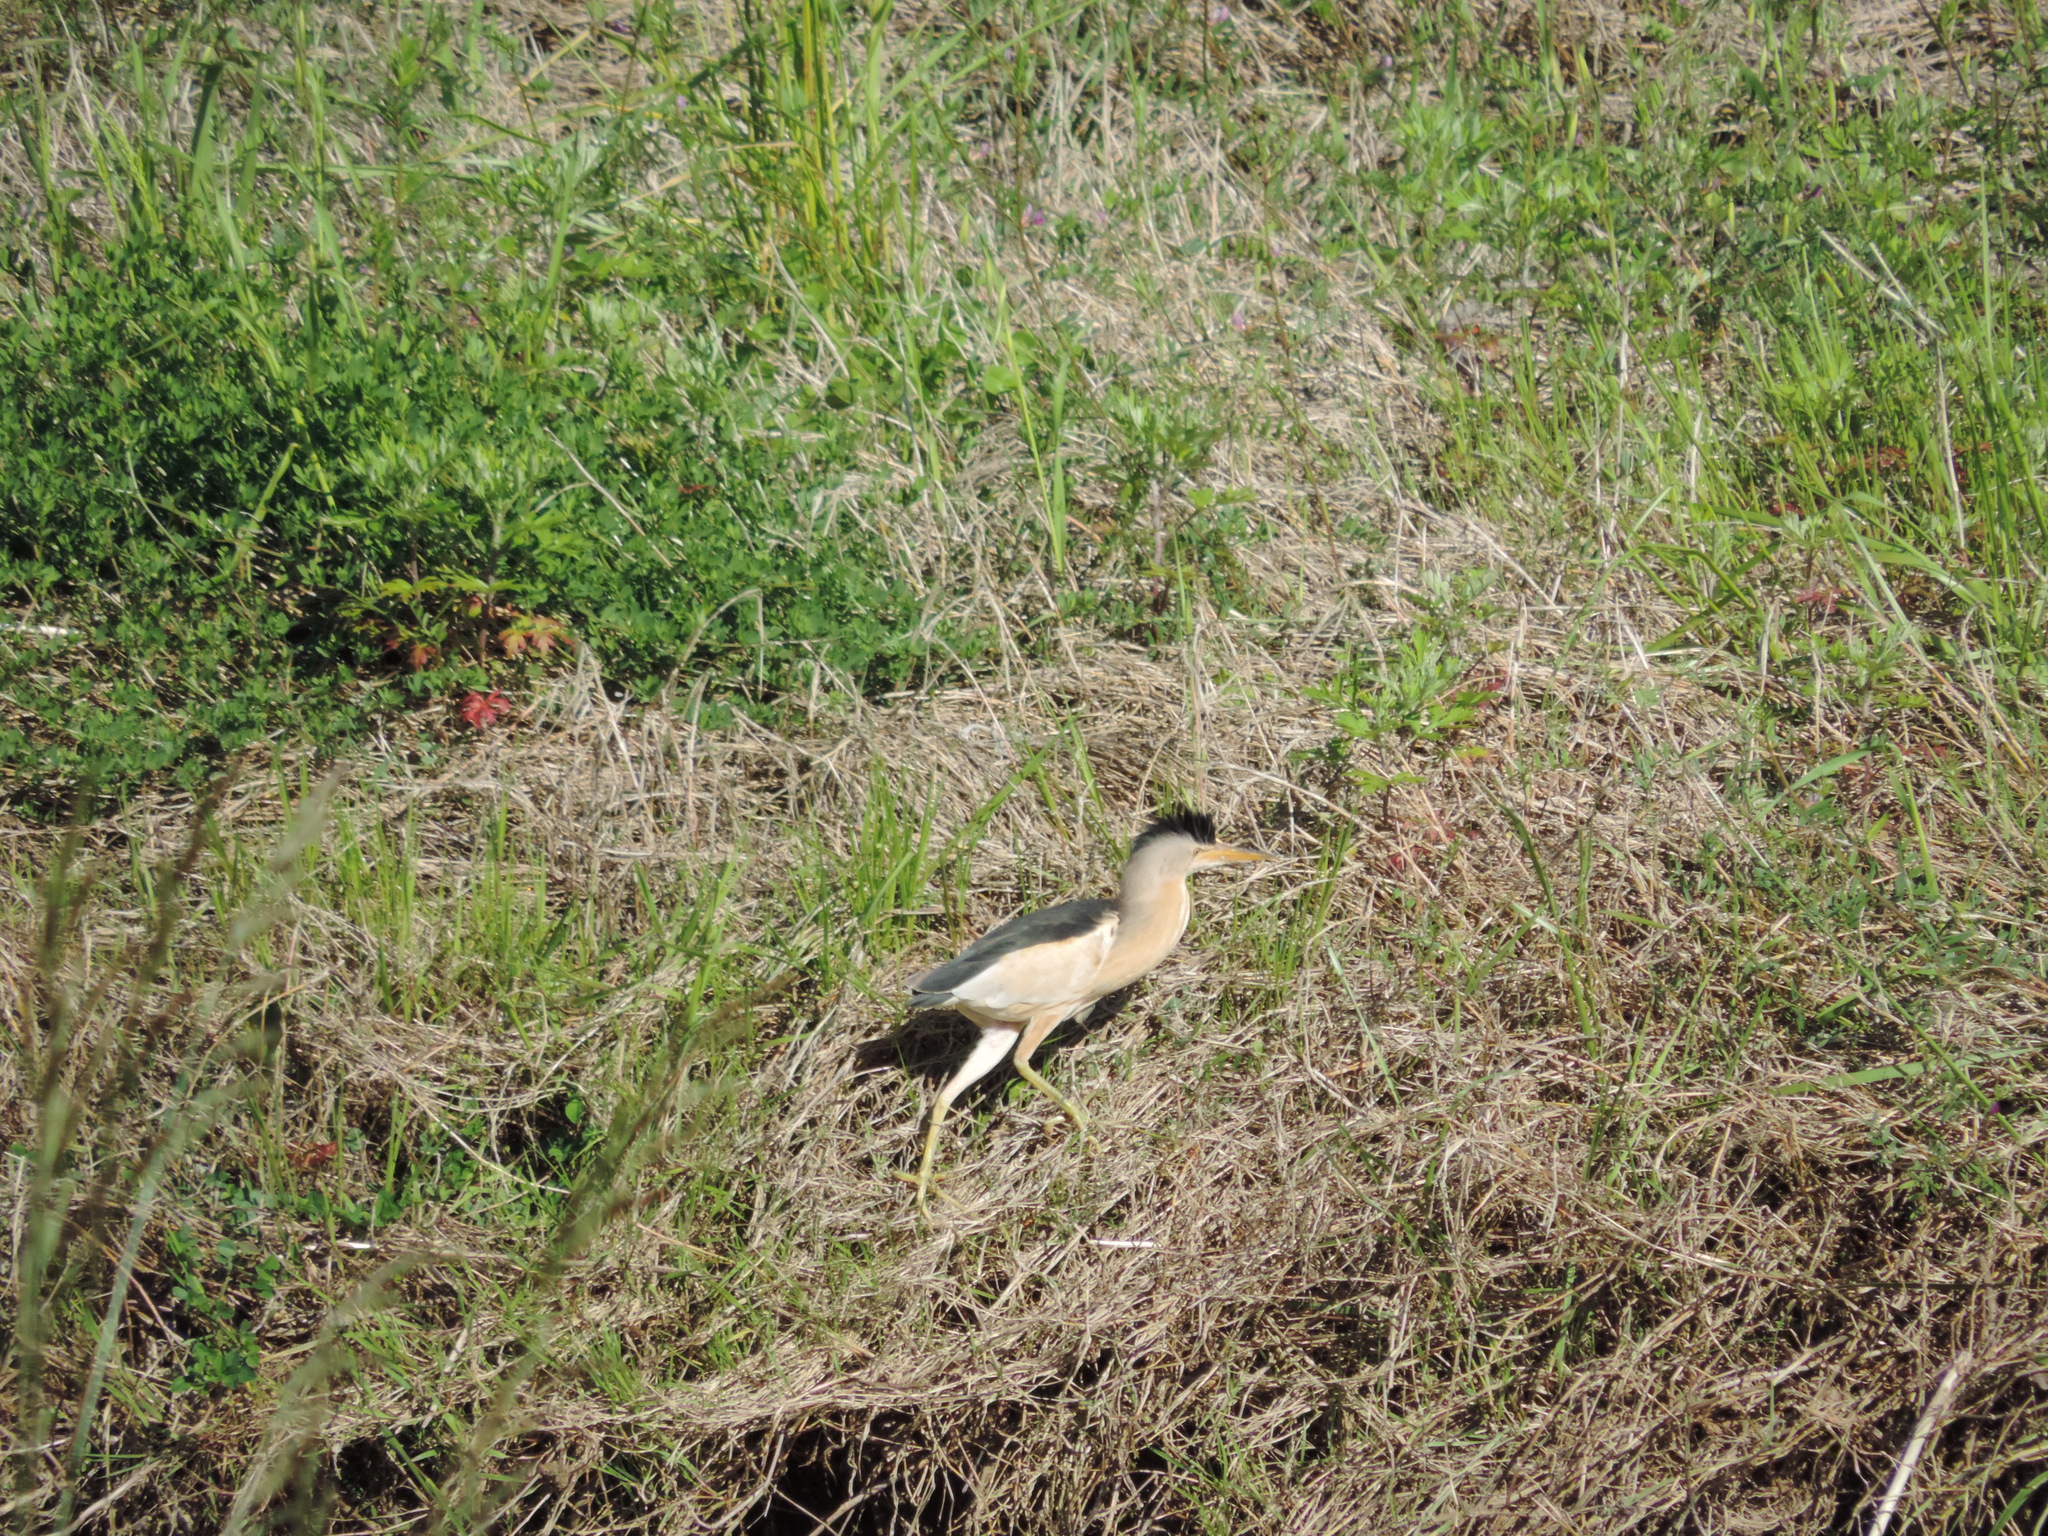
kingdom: Animalia
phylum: Chordata
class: Aves
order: Pelecaniformes
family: Ardeidae
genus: Ixobrychus
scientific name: Ixobrychus minutus
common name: Little bittern
